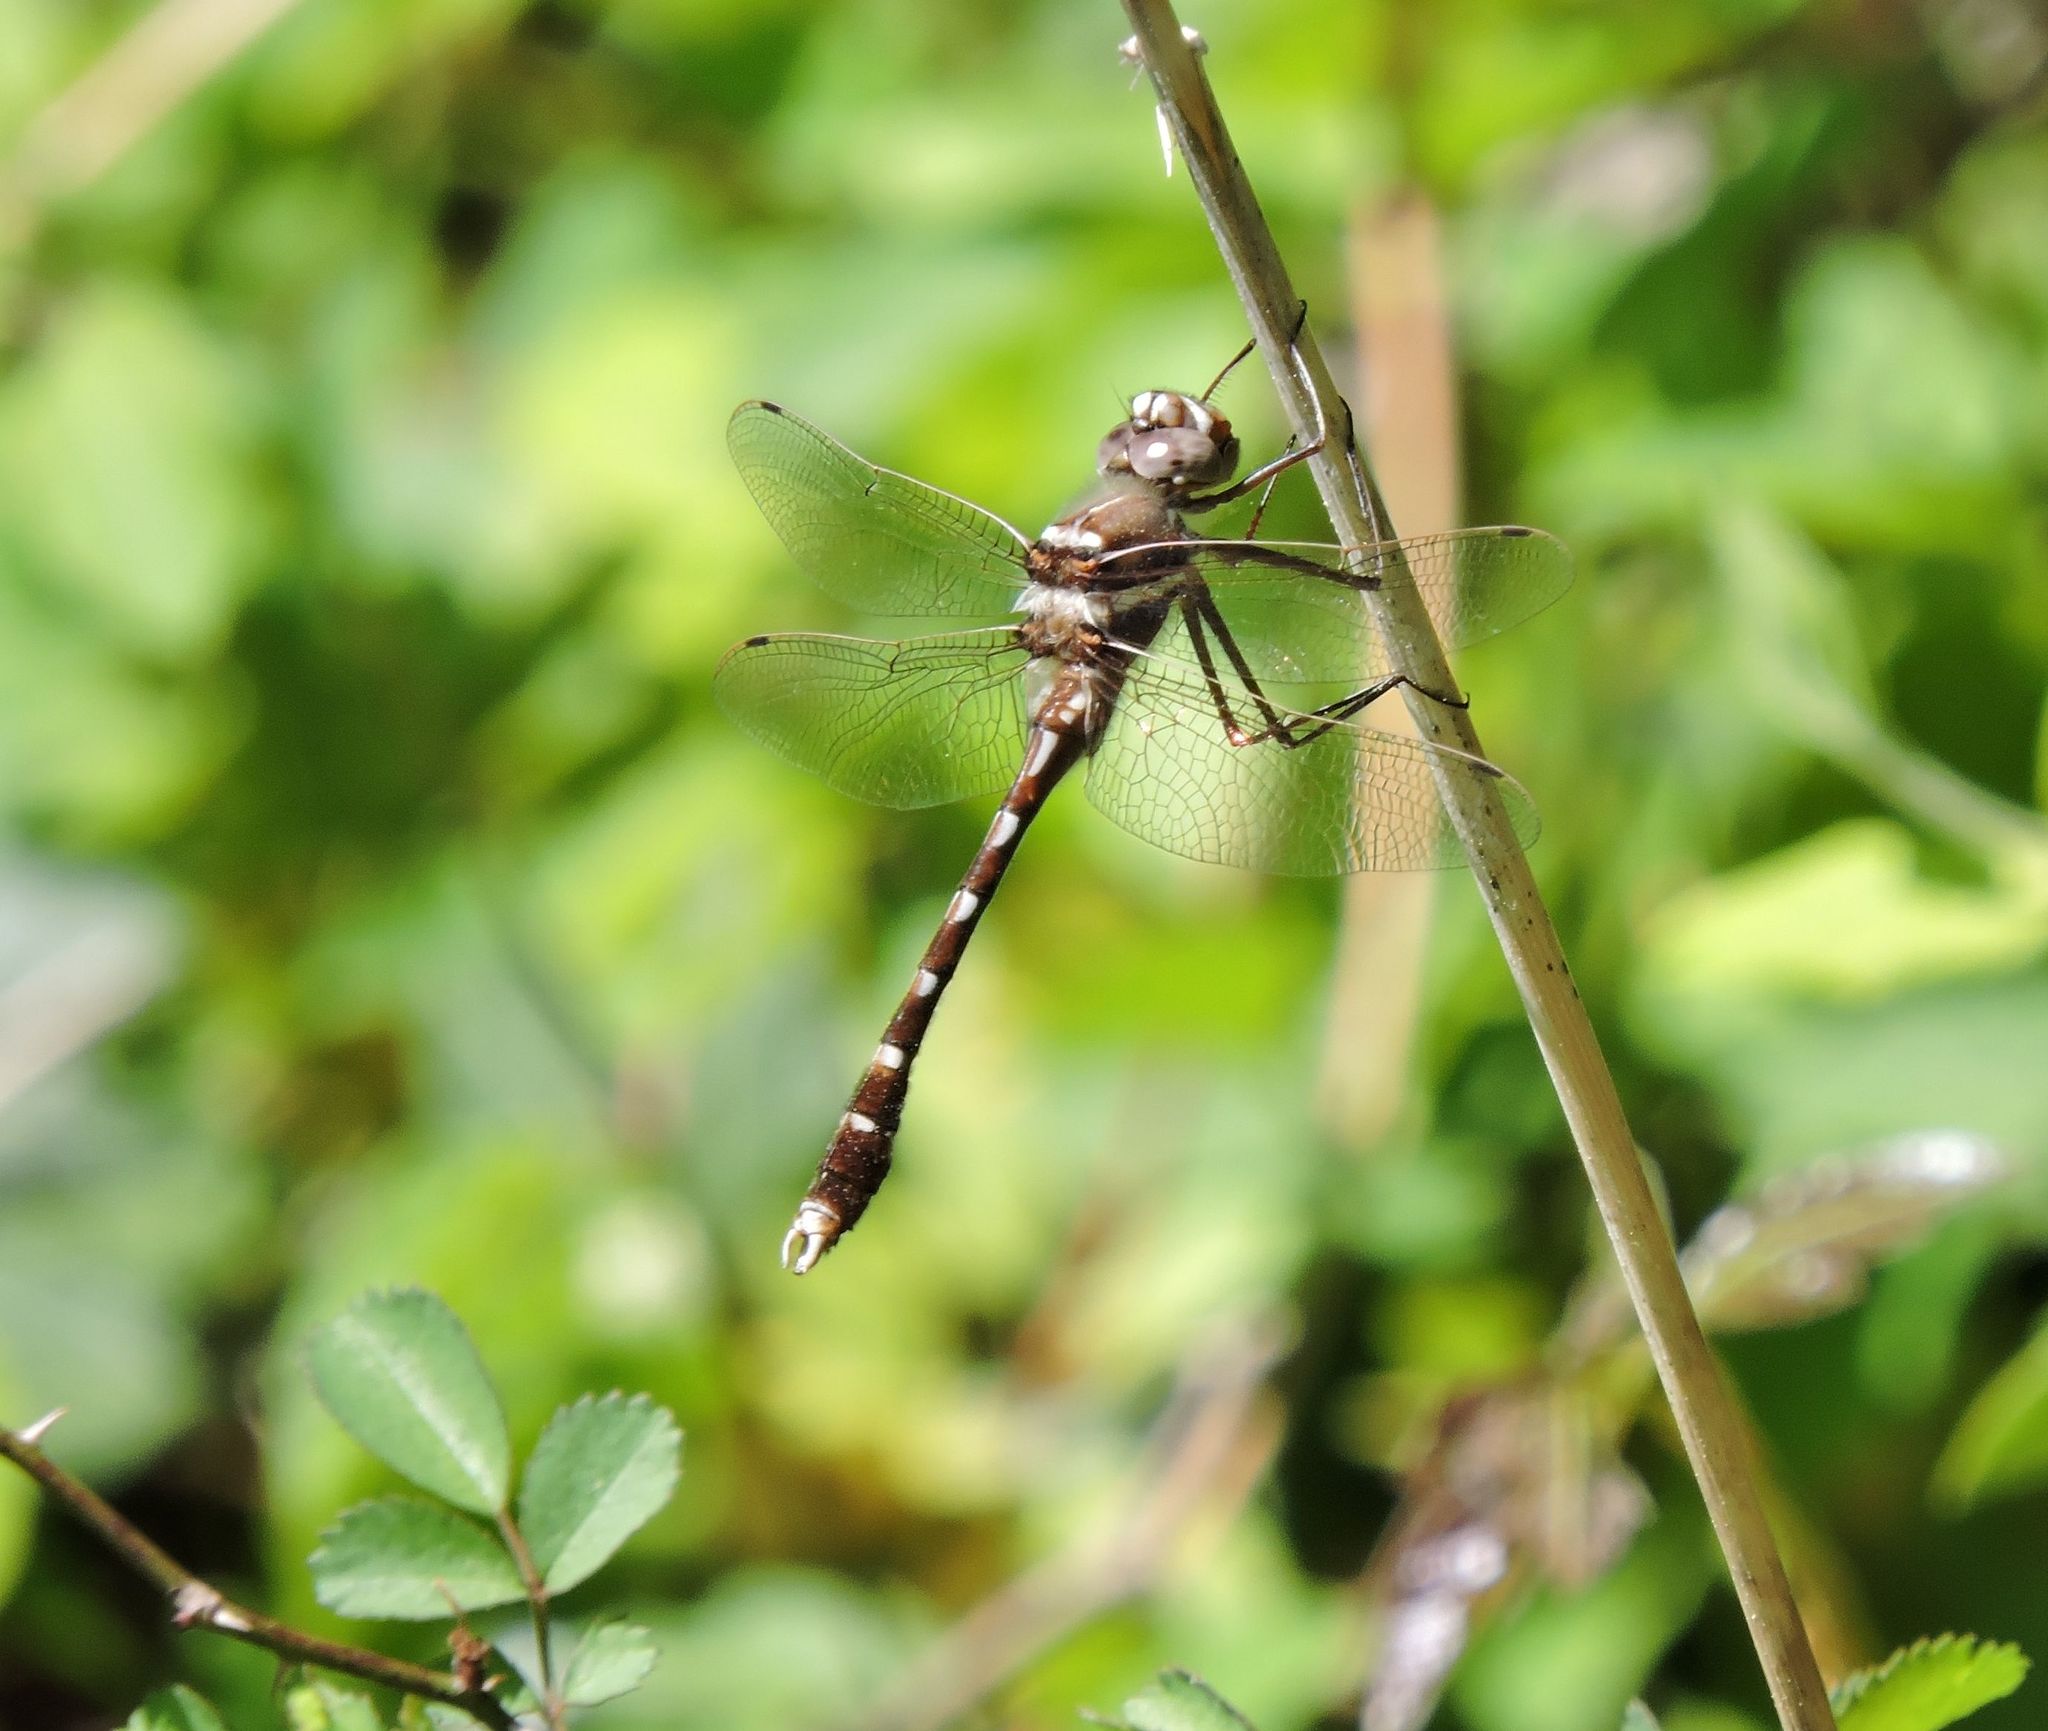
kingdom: Animalia
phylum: Arthropoda
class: Insecta
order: Odonata
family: Macromiidae
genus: Didymops
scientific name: Didymops transversa
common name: Stream cruiser
